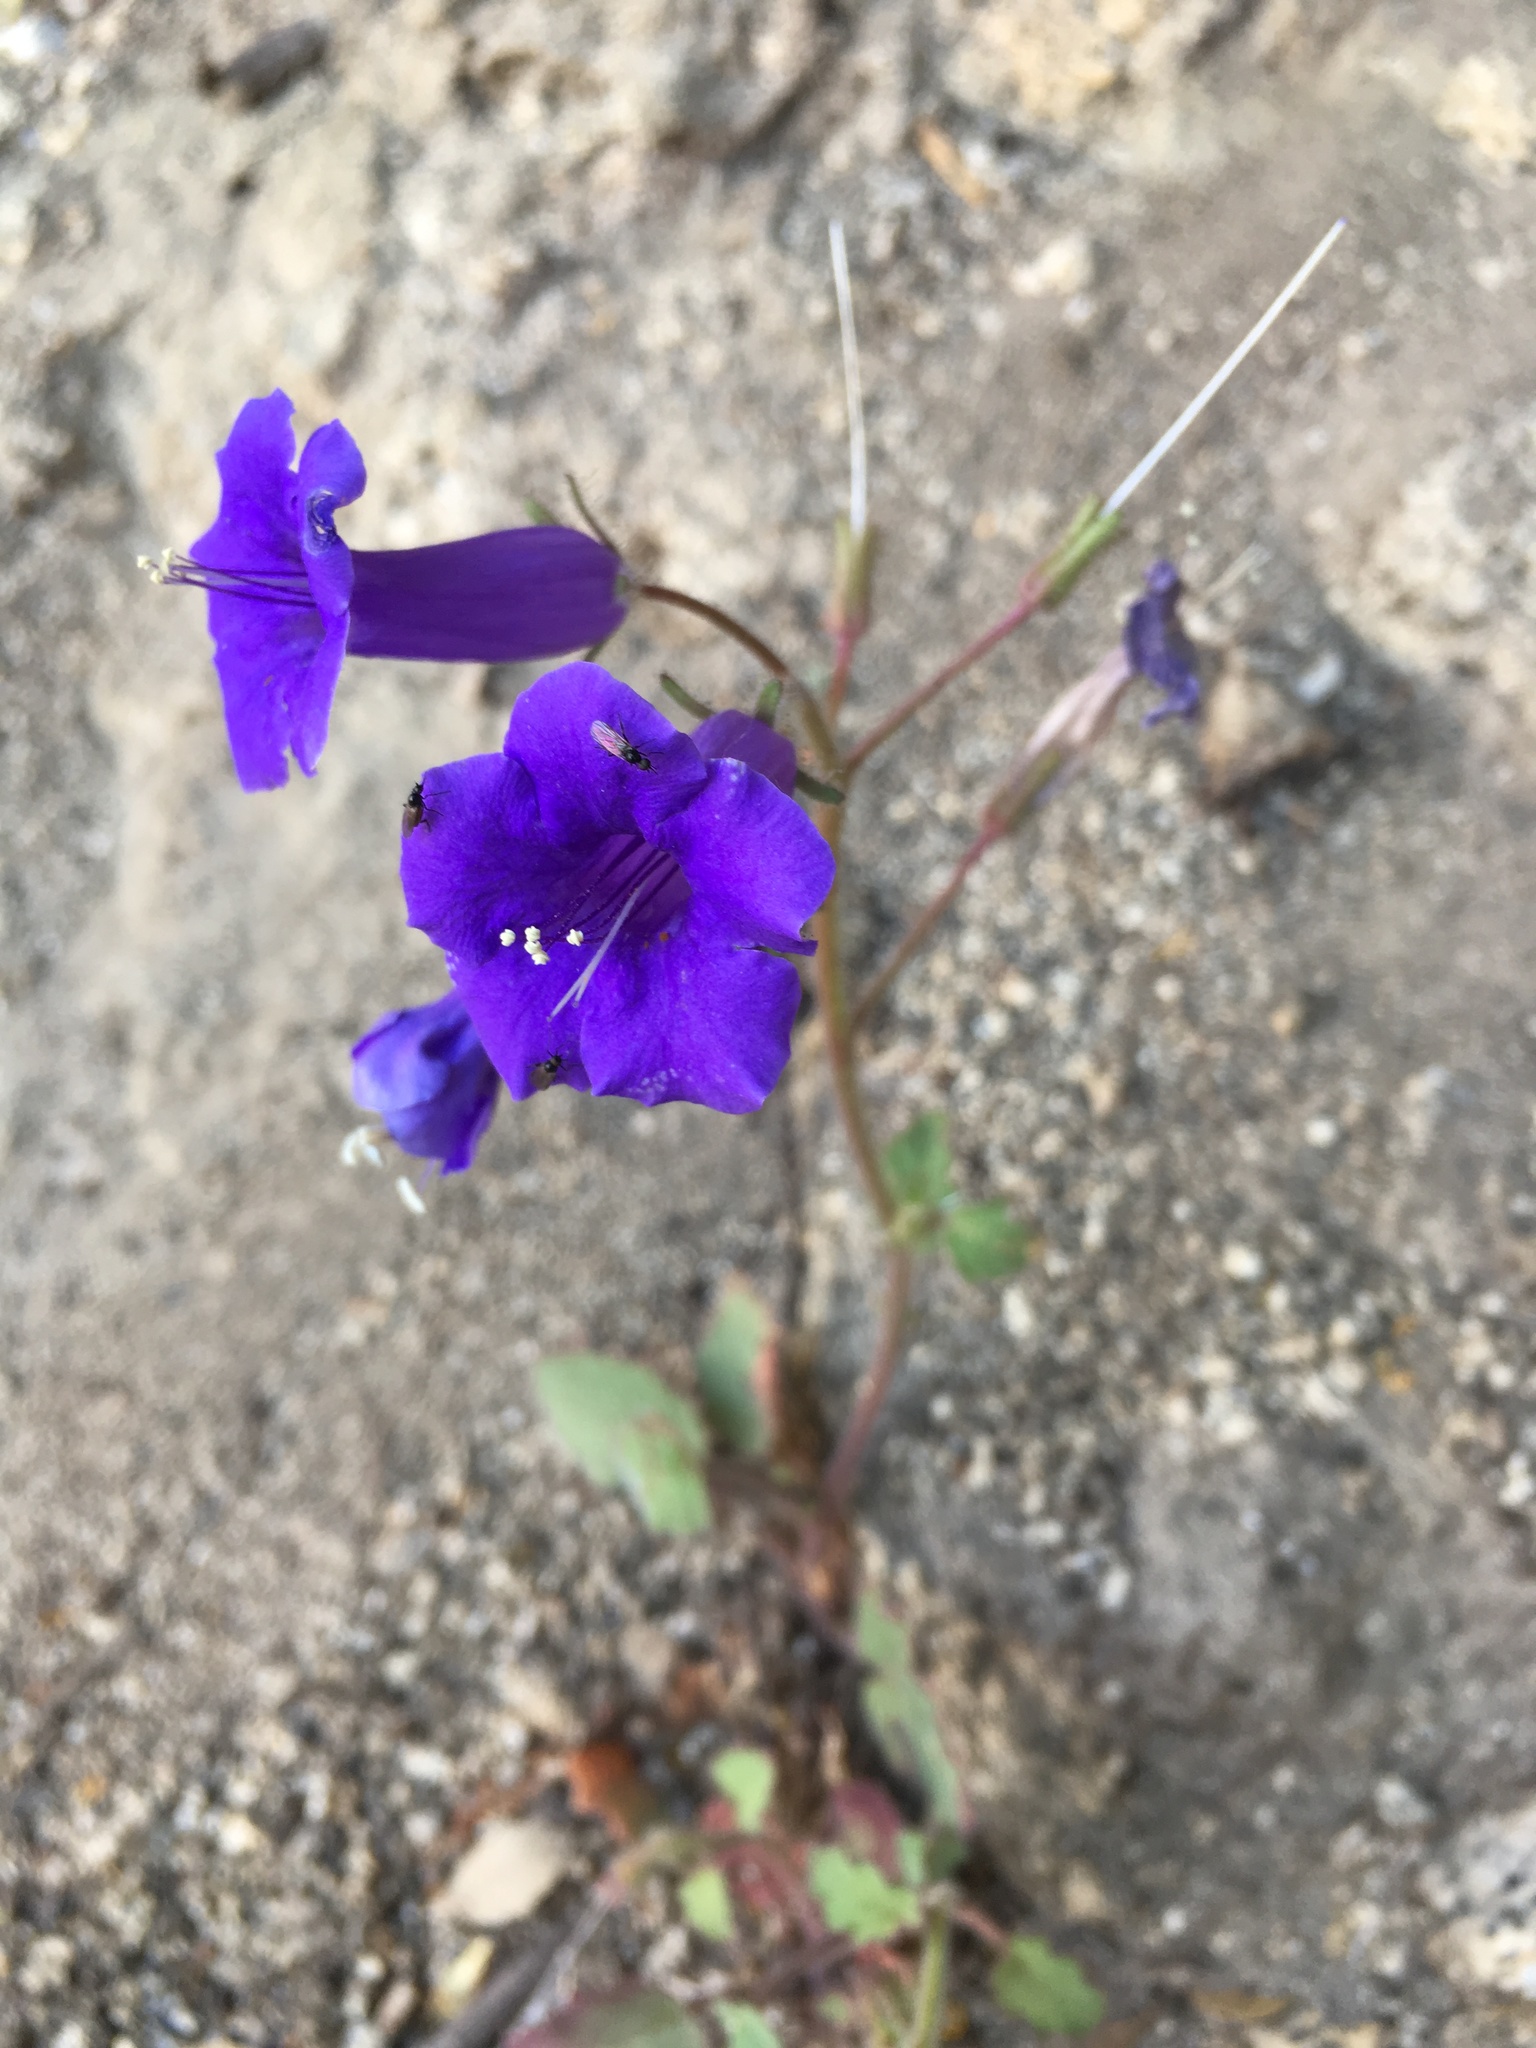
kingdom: Plantae
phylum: Tracheophyta
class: Magnoliopsida
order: Boraginales
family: Hydrophyllaceae
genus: Phacelia
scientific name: Phacelia minor
